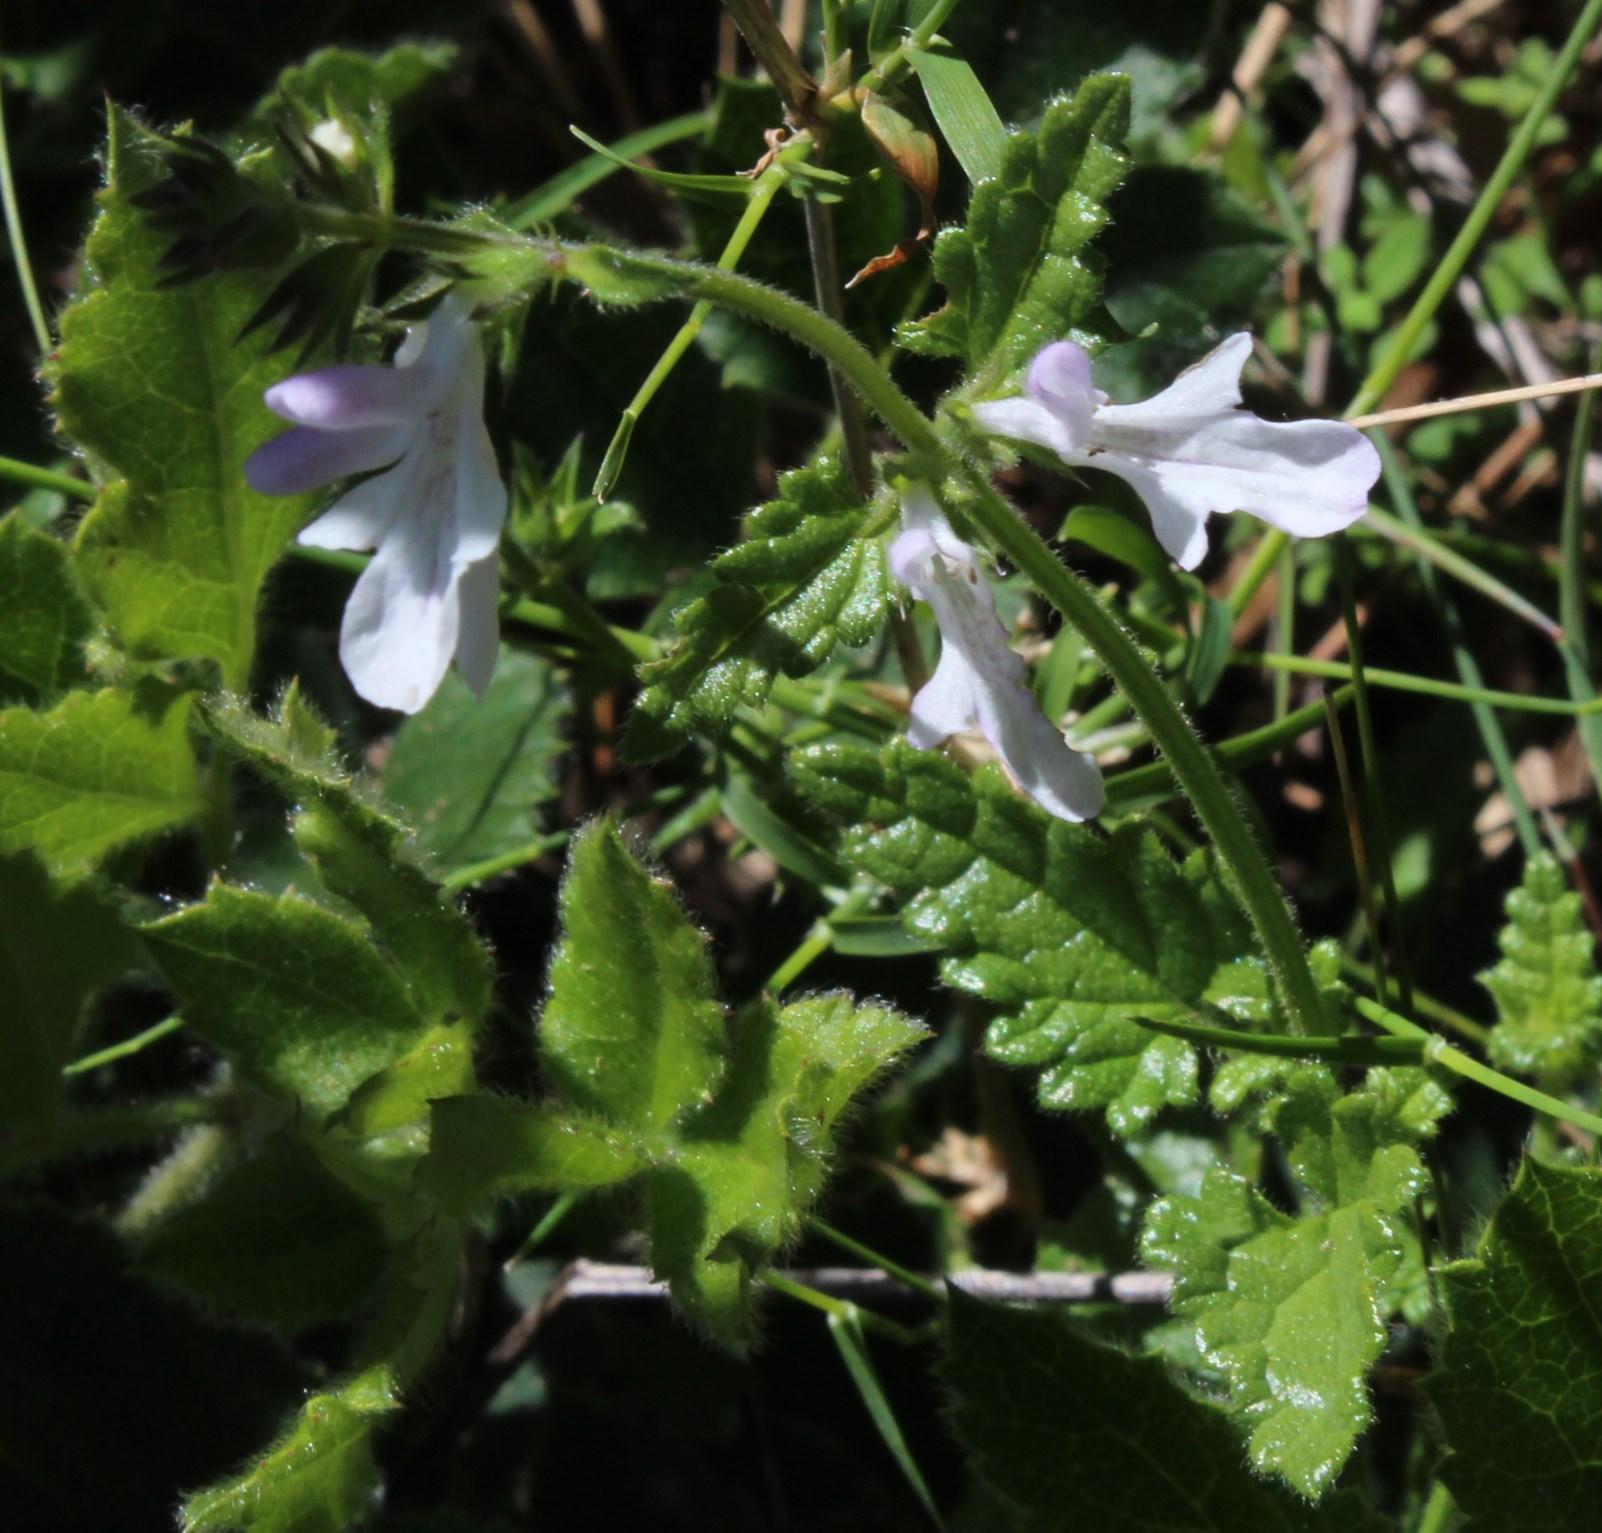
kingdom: Plantae
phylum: Tracheophyta
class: Magnoliopsida
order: Lamiales
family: Lamiaceae
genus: Stachys
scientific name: Stachys aethiopica
